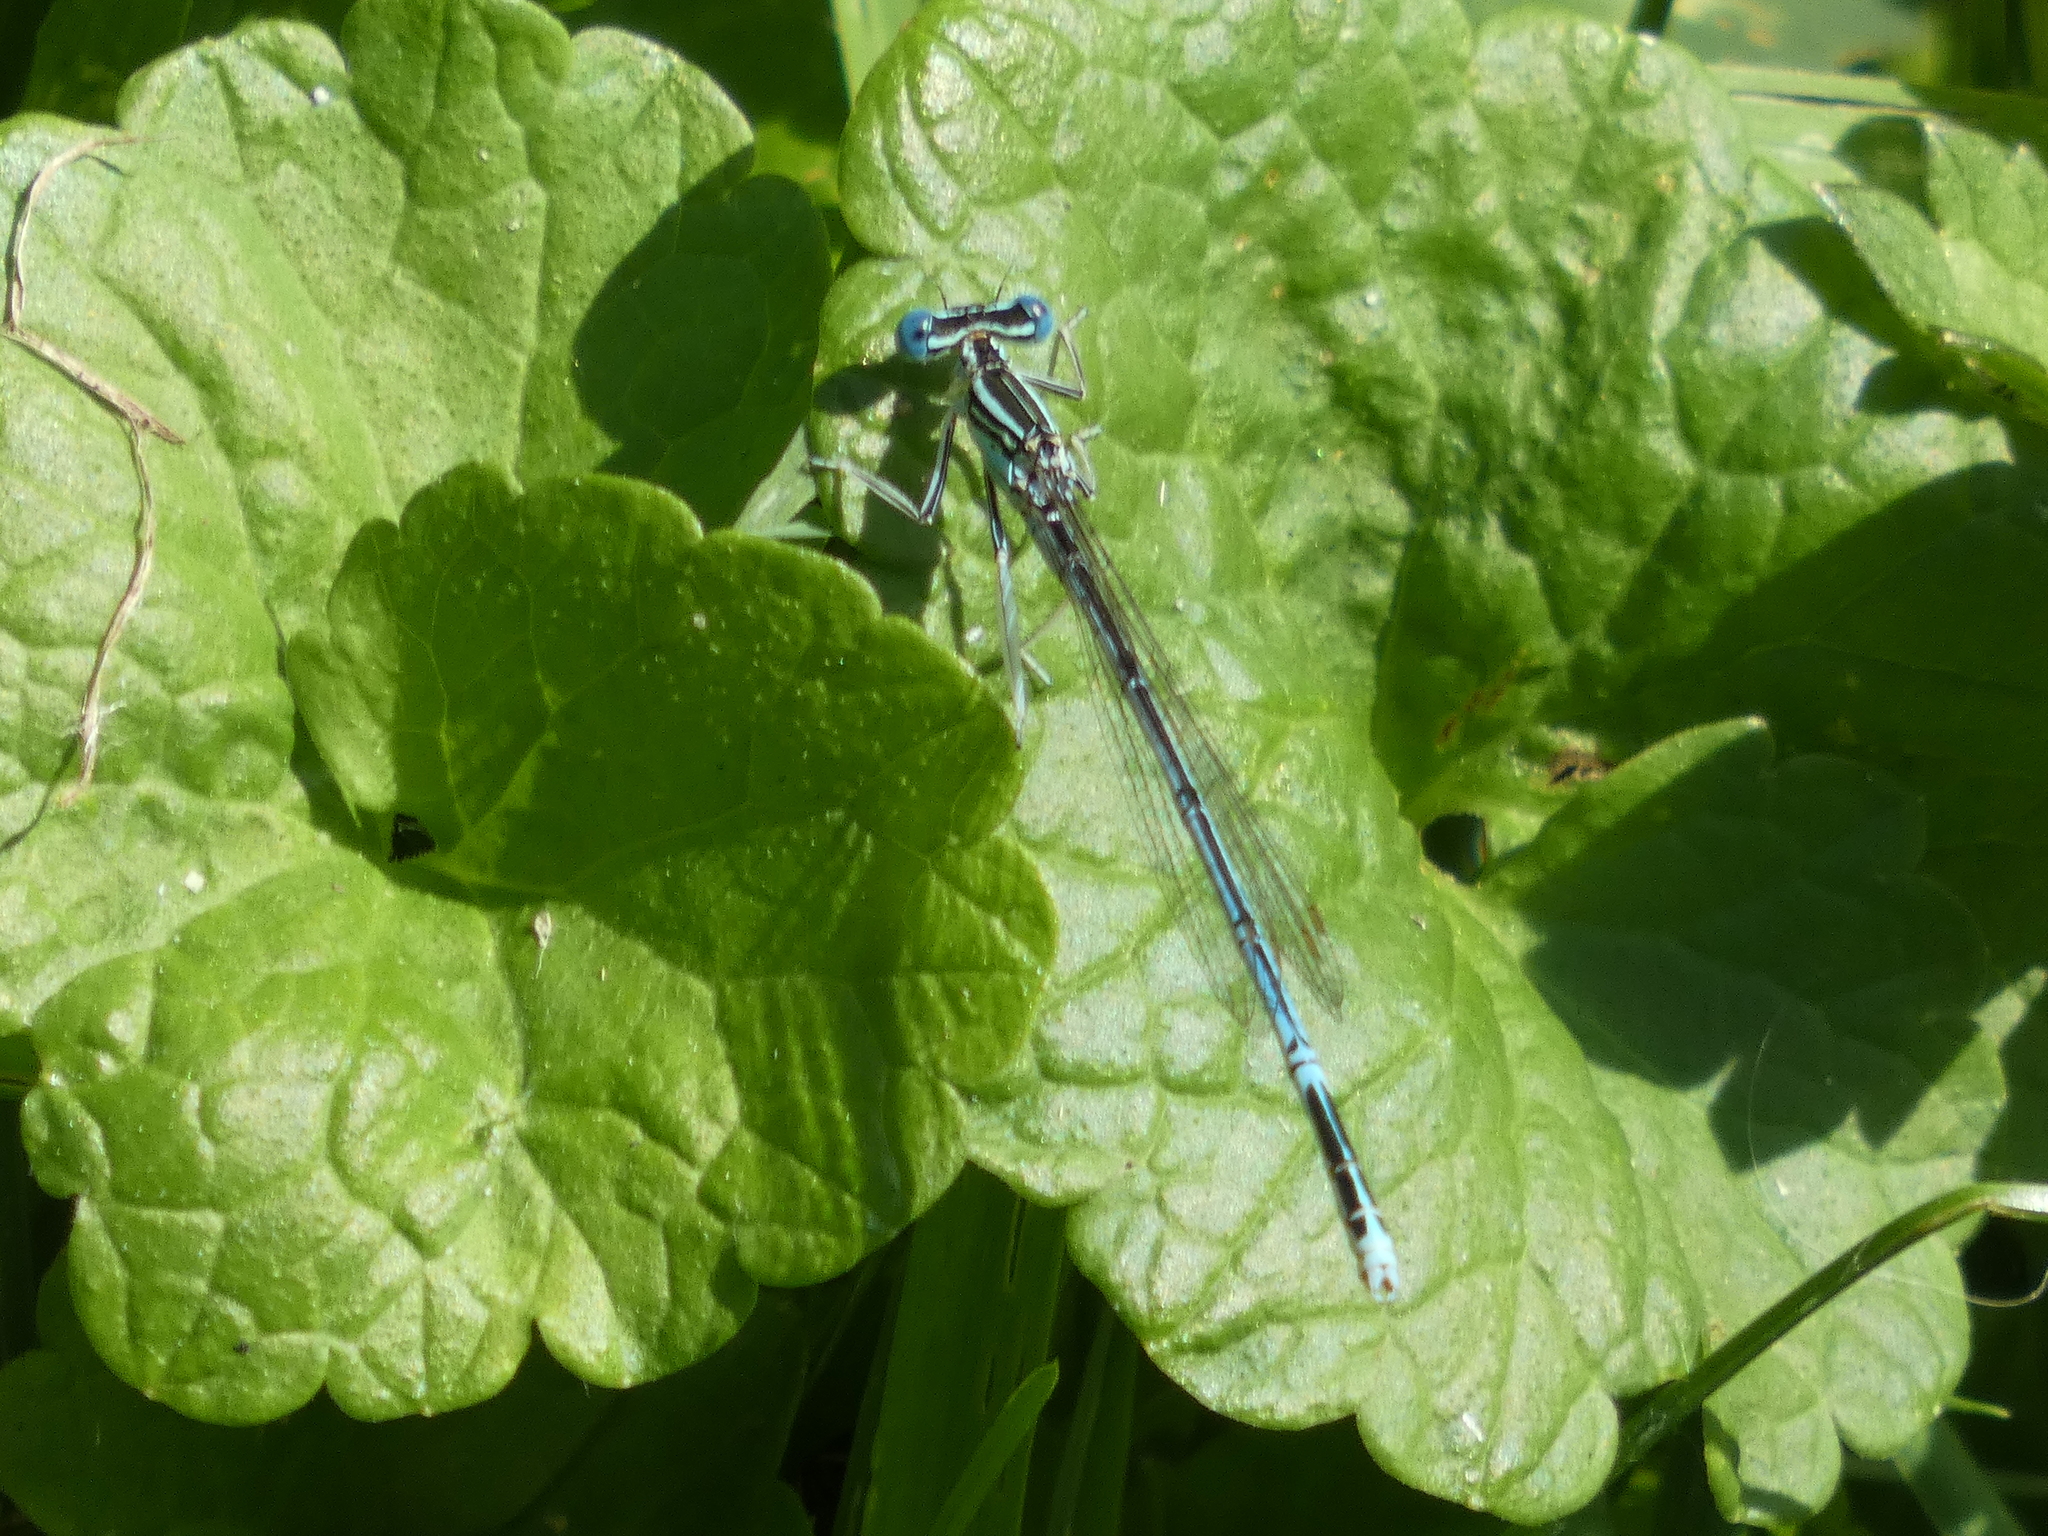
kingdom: Animalia
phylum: Arthropoda
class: Insecta
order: Odonata
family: Platycnemididae
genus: Platycnemis
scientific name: Platycnemis pennipes
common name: White-legged damselfly
